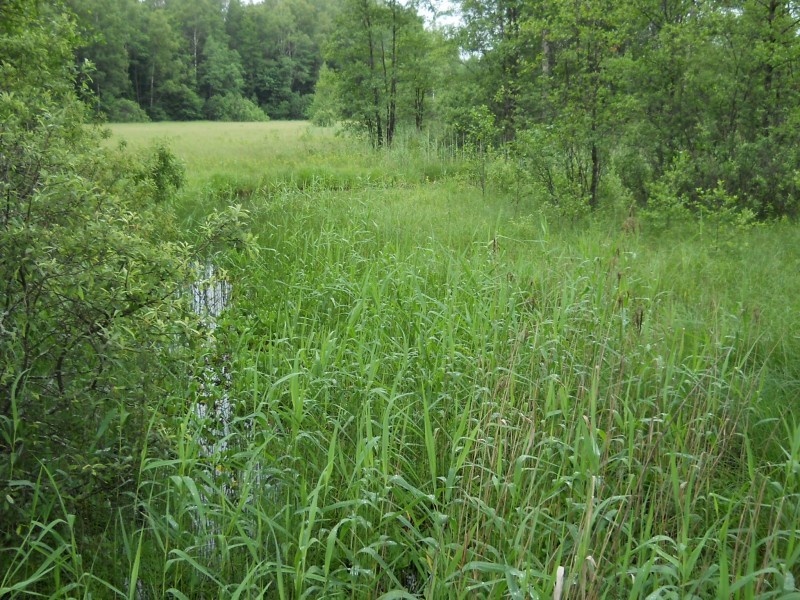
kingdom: Animalia
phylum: Chordata
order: Cypriniformes
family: Cobitidae
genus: Misgurnus
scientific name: Misgurnus fossilis
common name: Weatherfish
